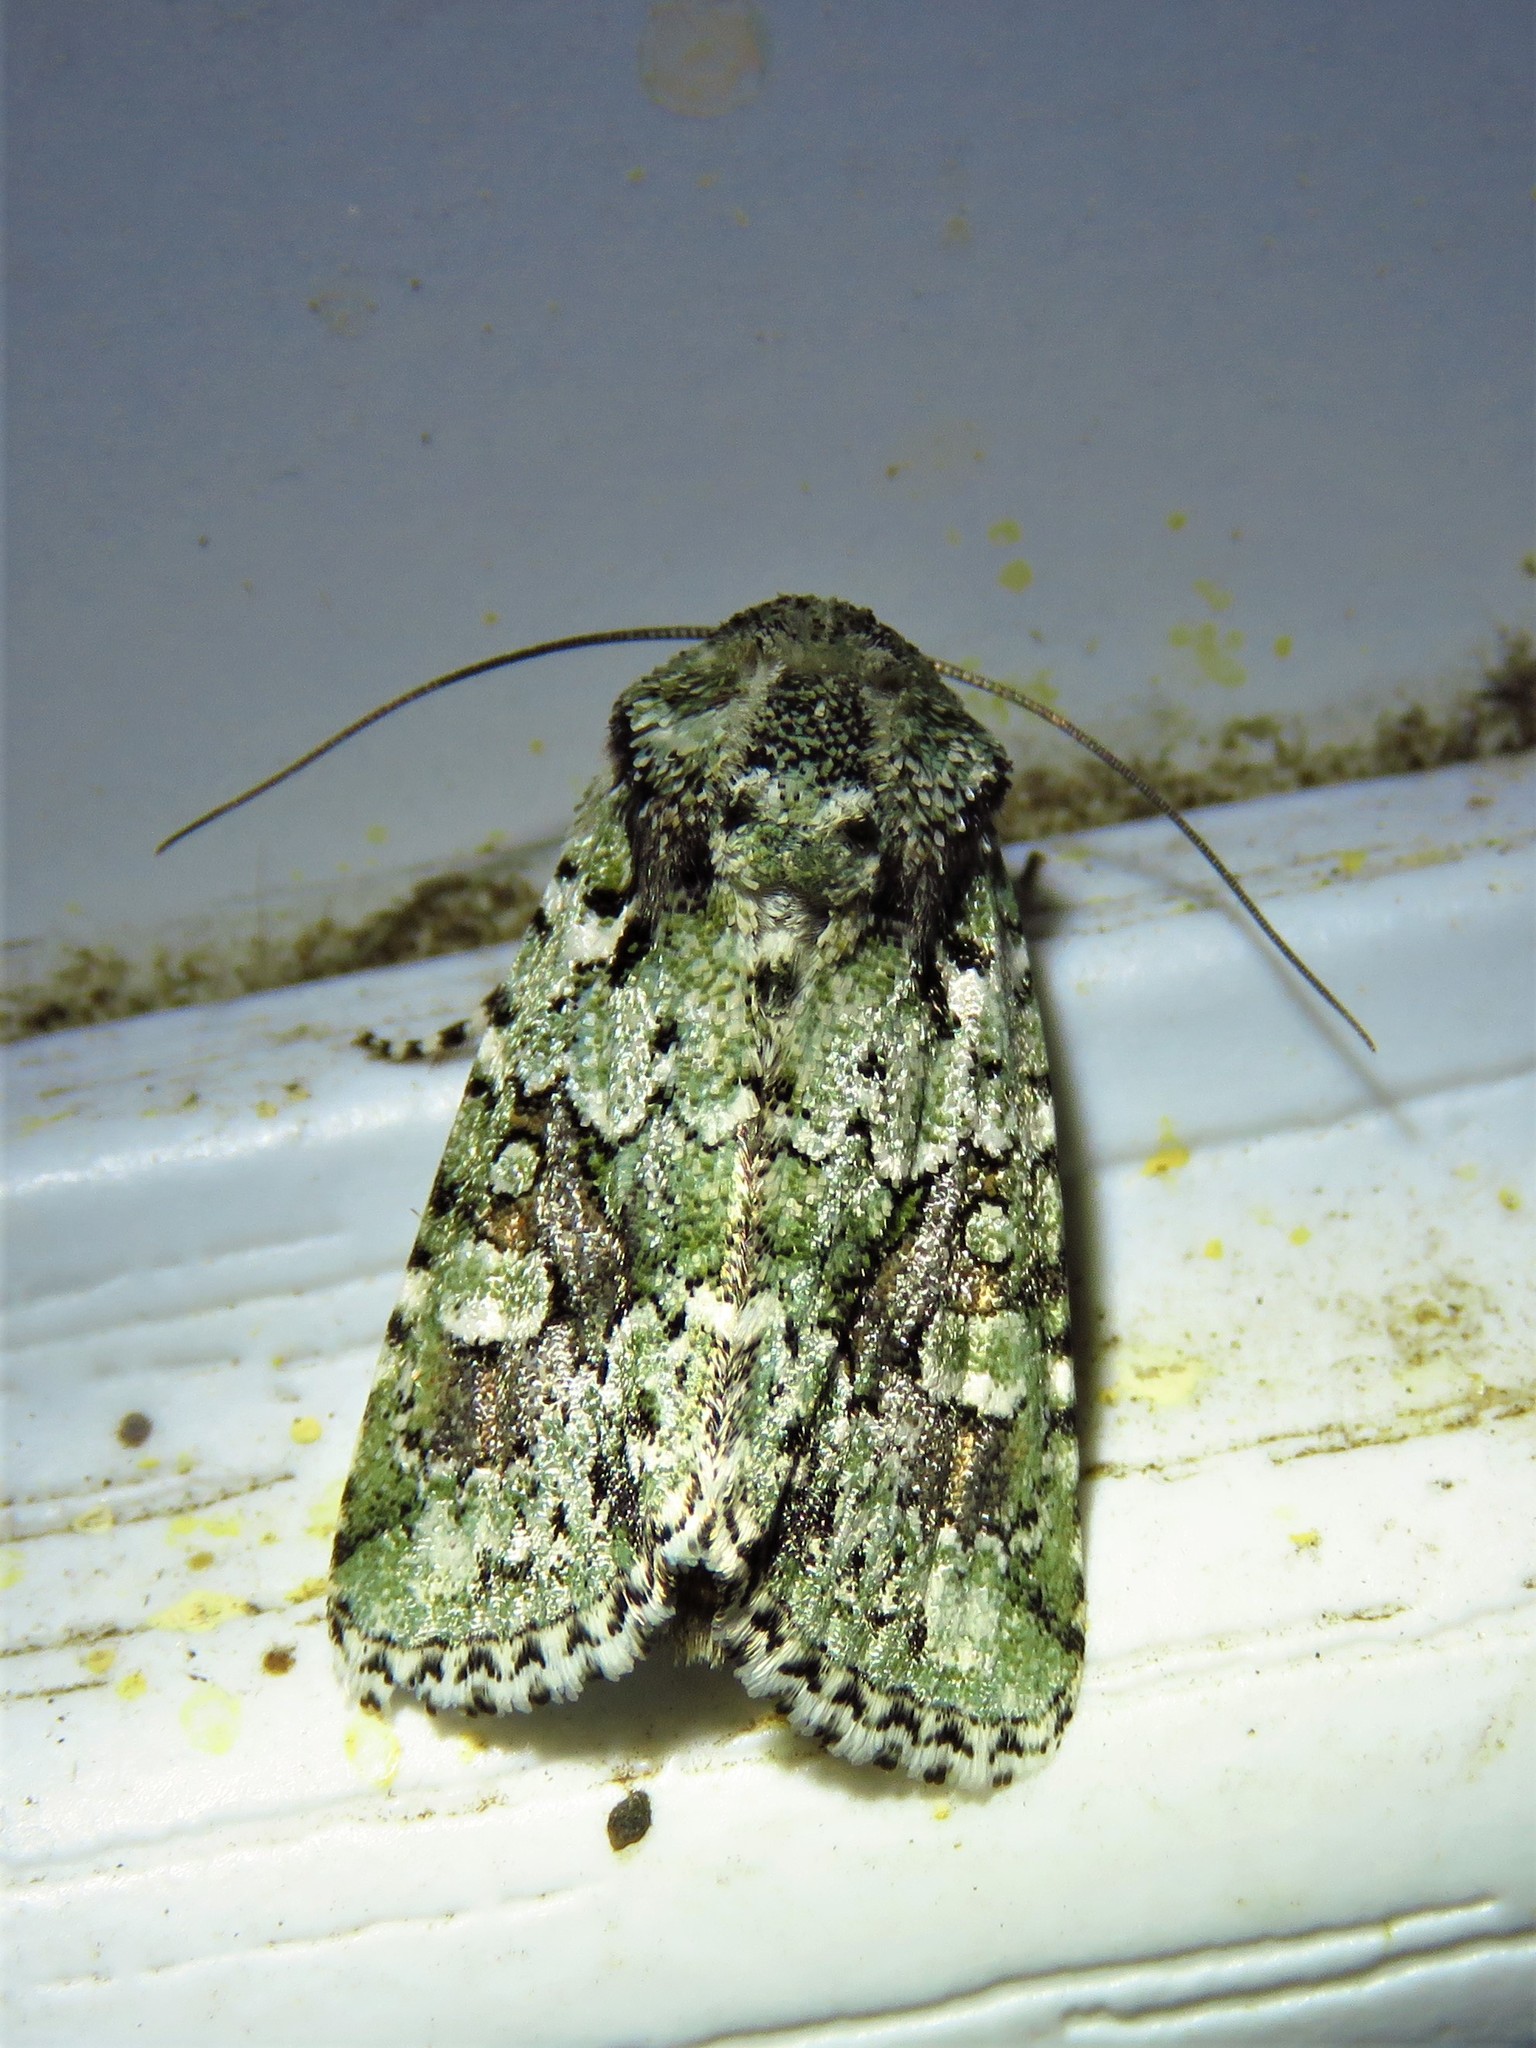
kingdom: Animalia
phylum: Arthropoda
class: Insecta
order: Lepidoptera
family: Noctuidae
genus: Lacinipolia
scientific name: Lacinipolia laudabilis
